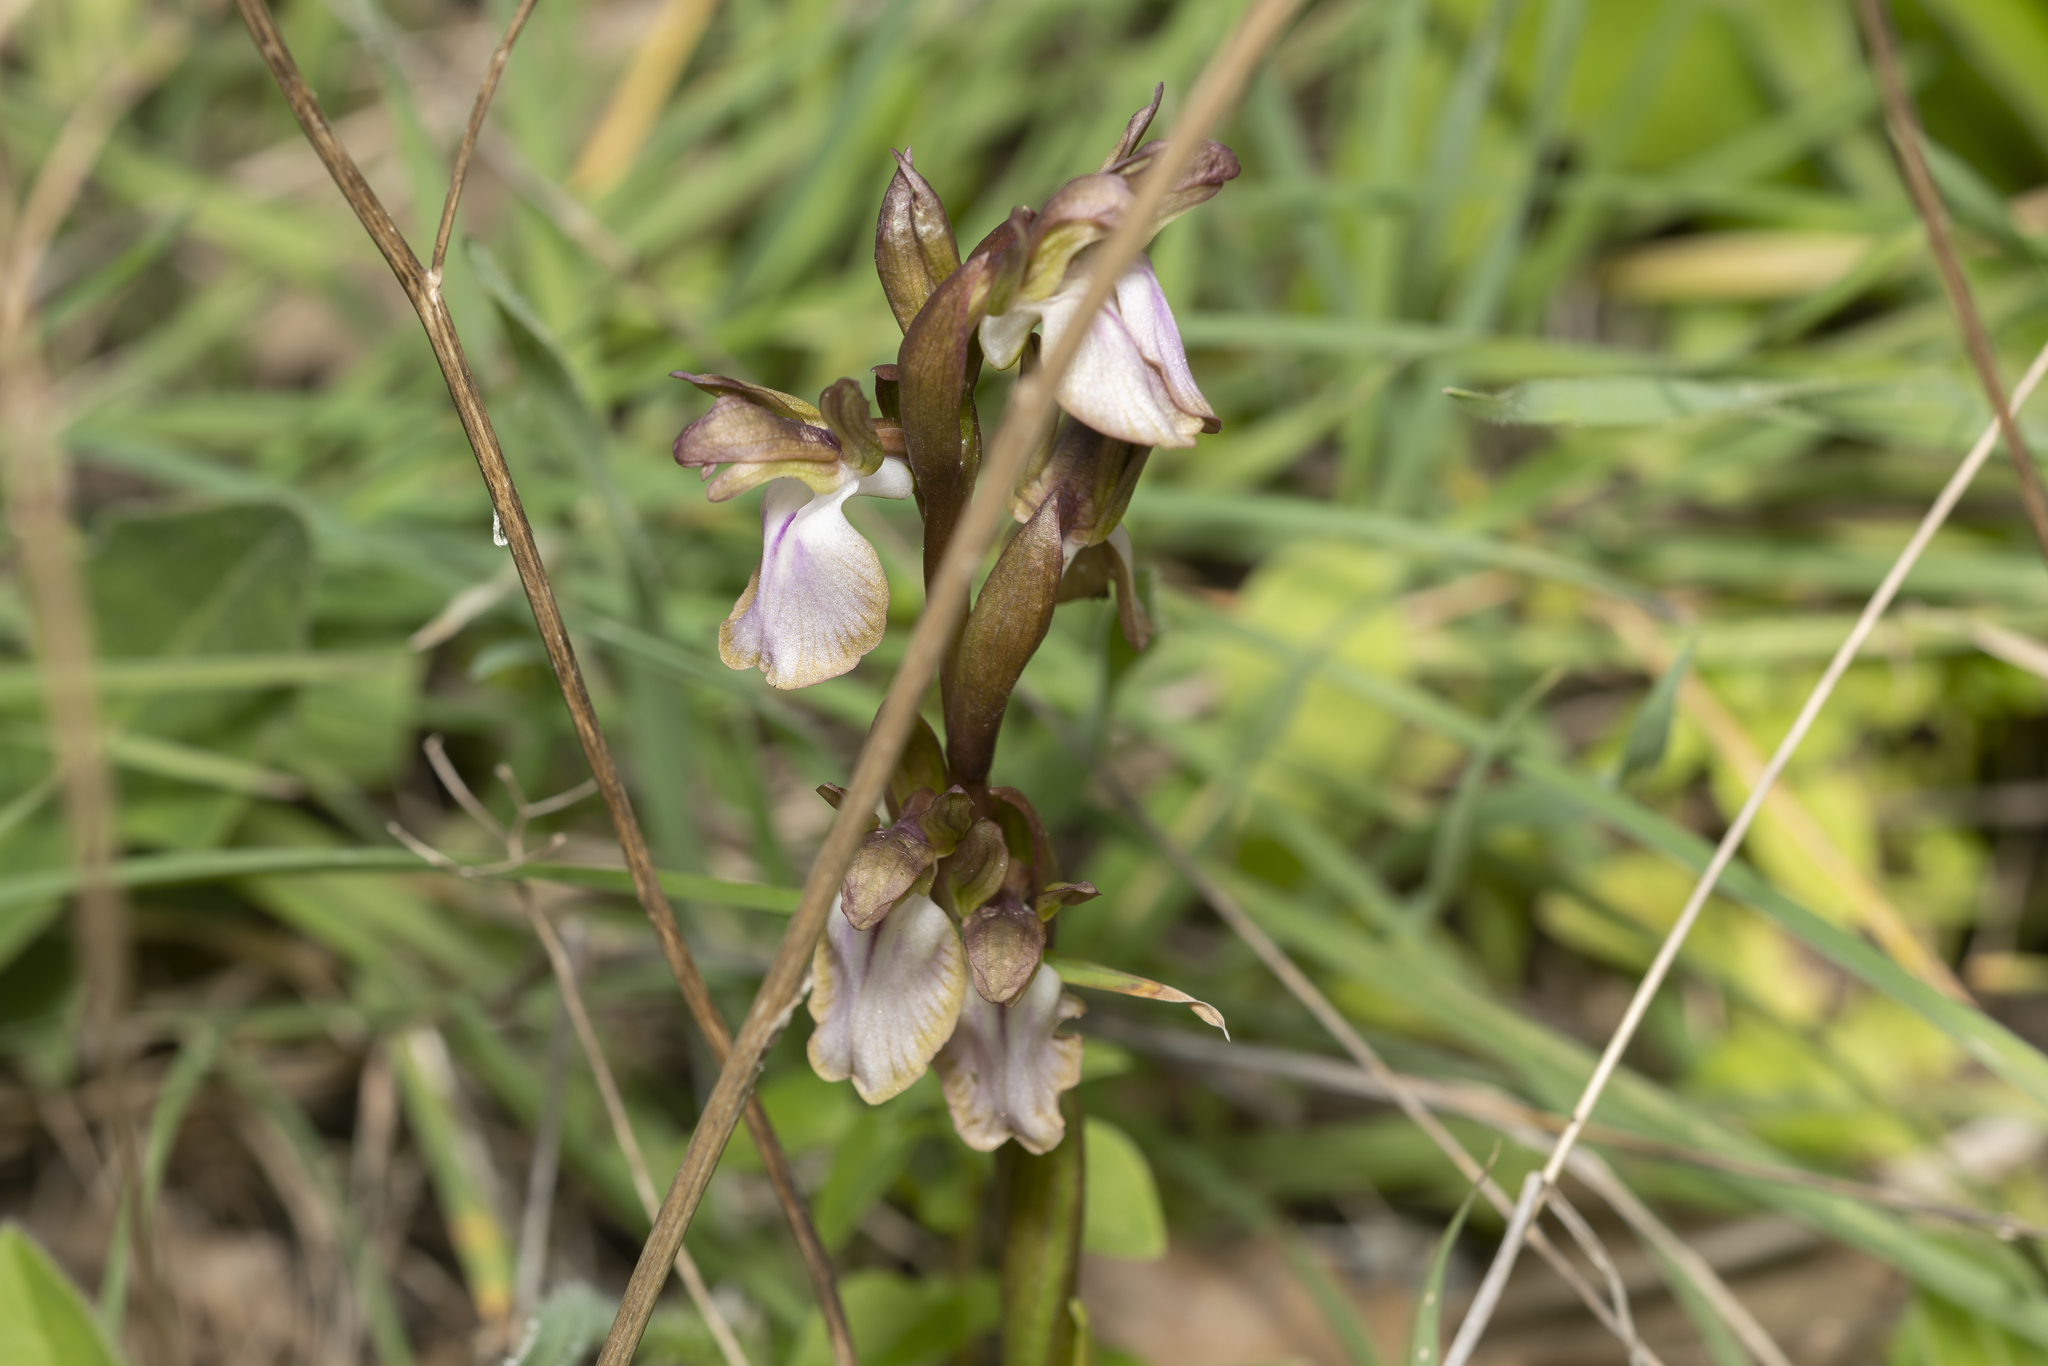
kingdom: Plantae
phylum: Tracheophyta
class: Liliopsida
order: Asparagales
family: Orchidaceae
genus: Anacamptis
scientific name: Anacamptis collina
